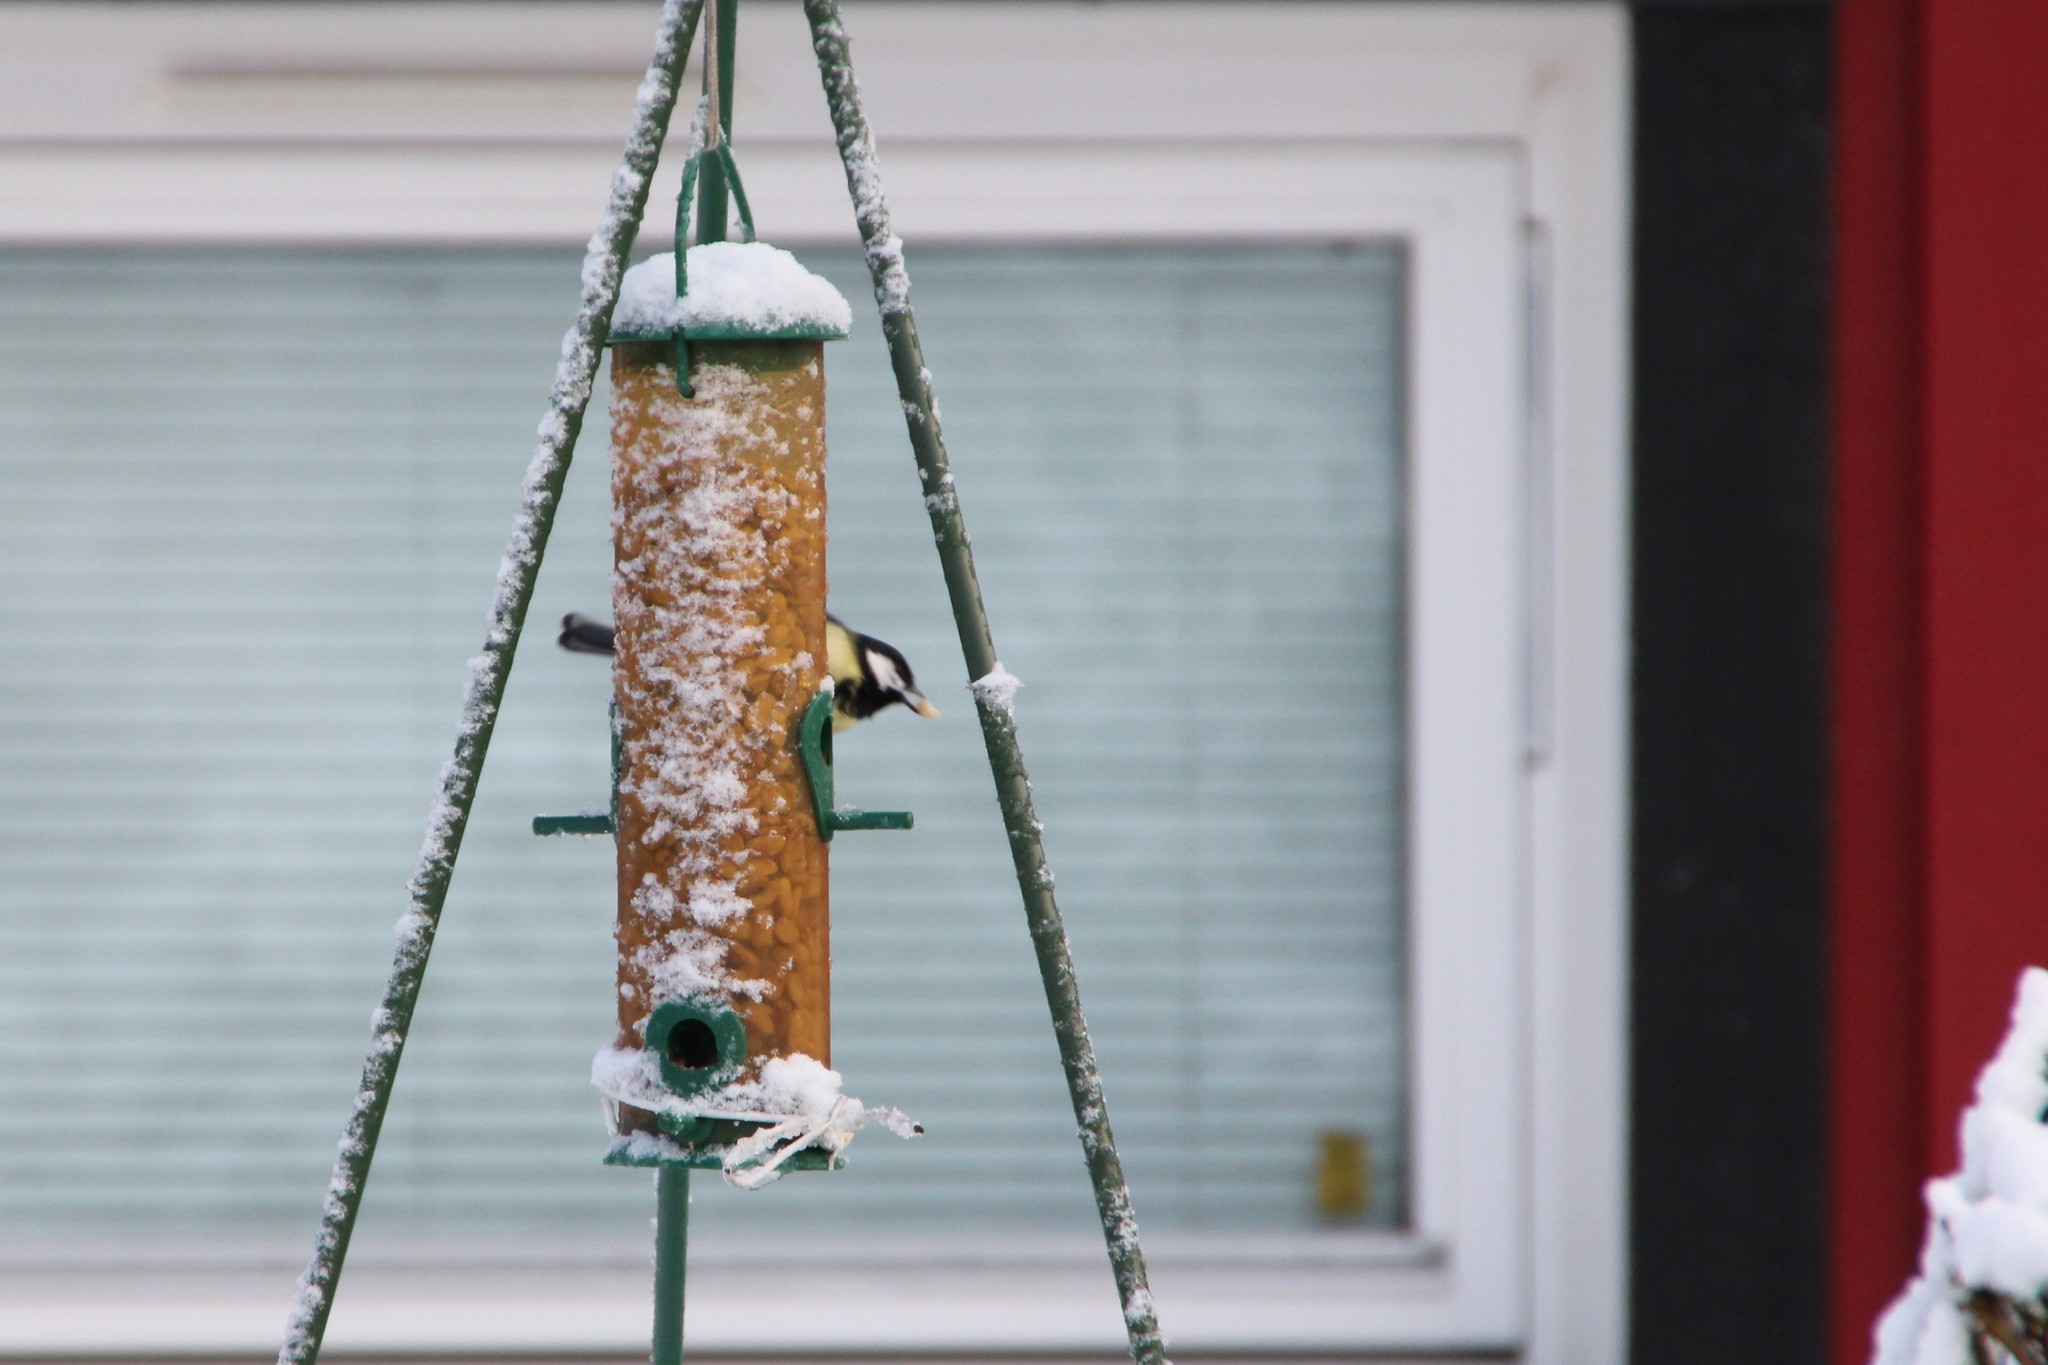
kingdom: Animalia
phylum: Chordata
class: Aves
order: Passeriformes
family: Paridae
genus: Parus
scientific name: Parus major
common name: Great tit
